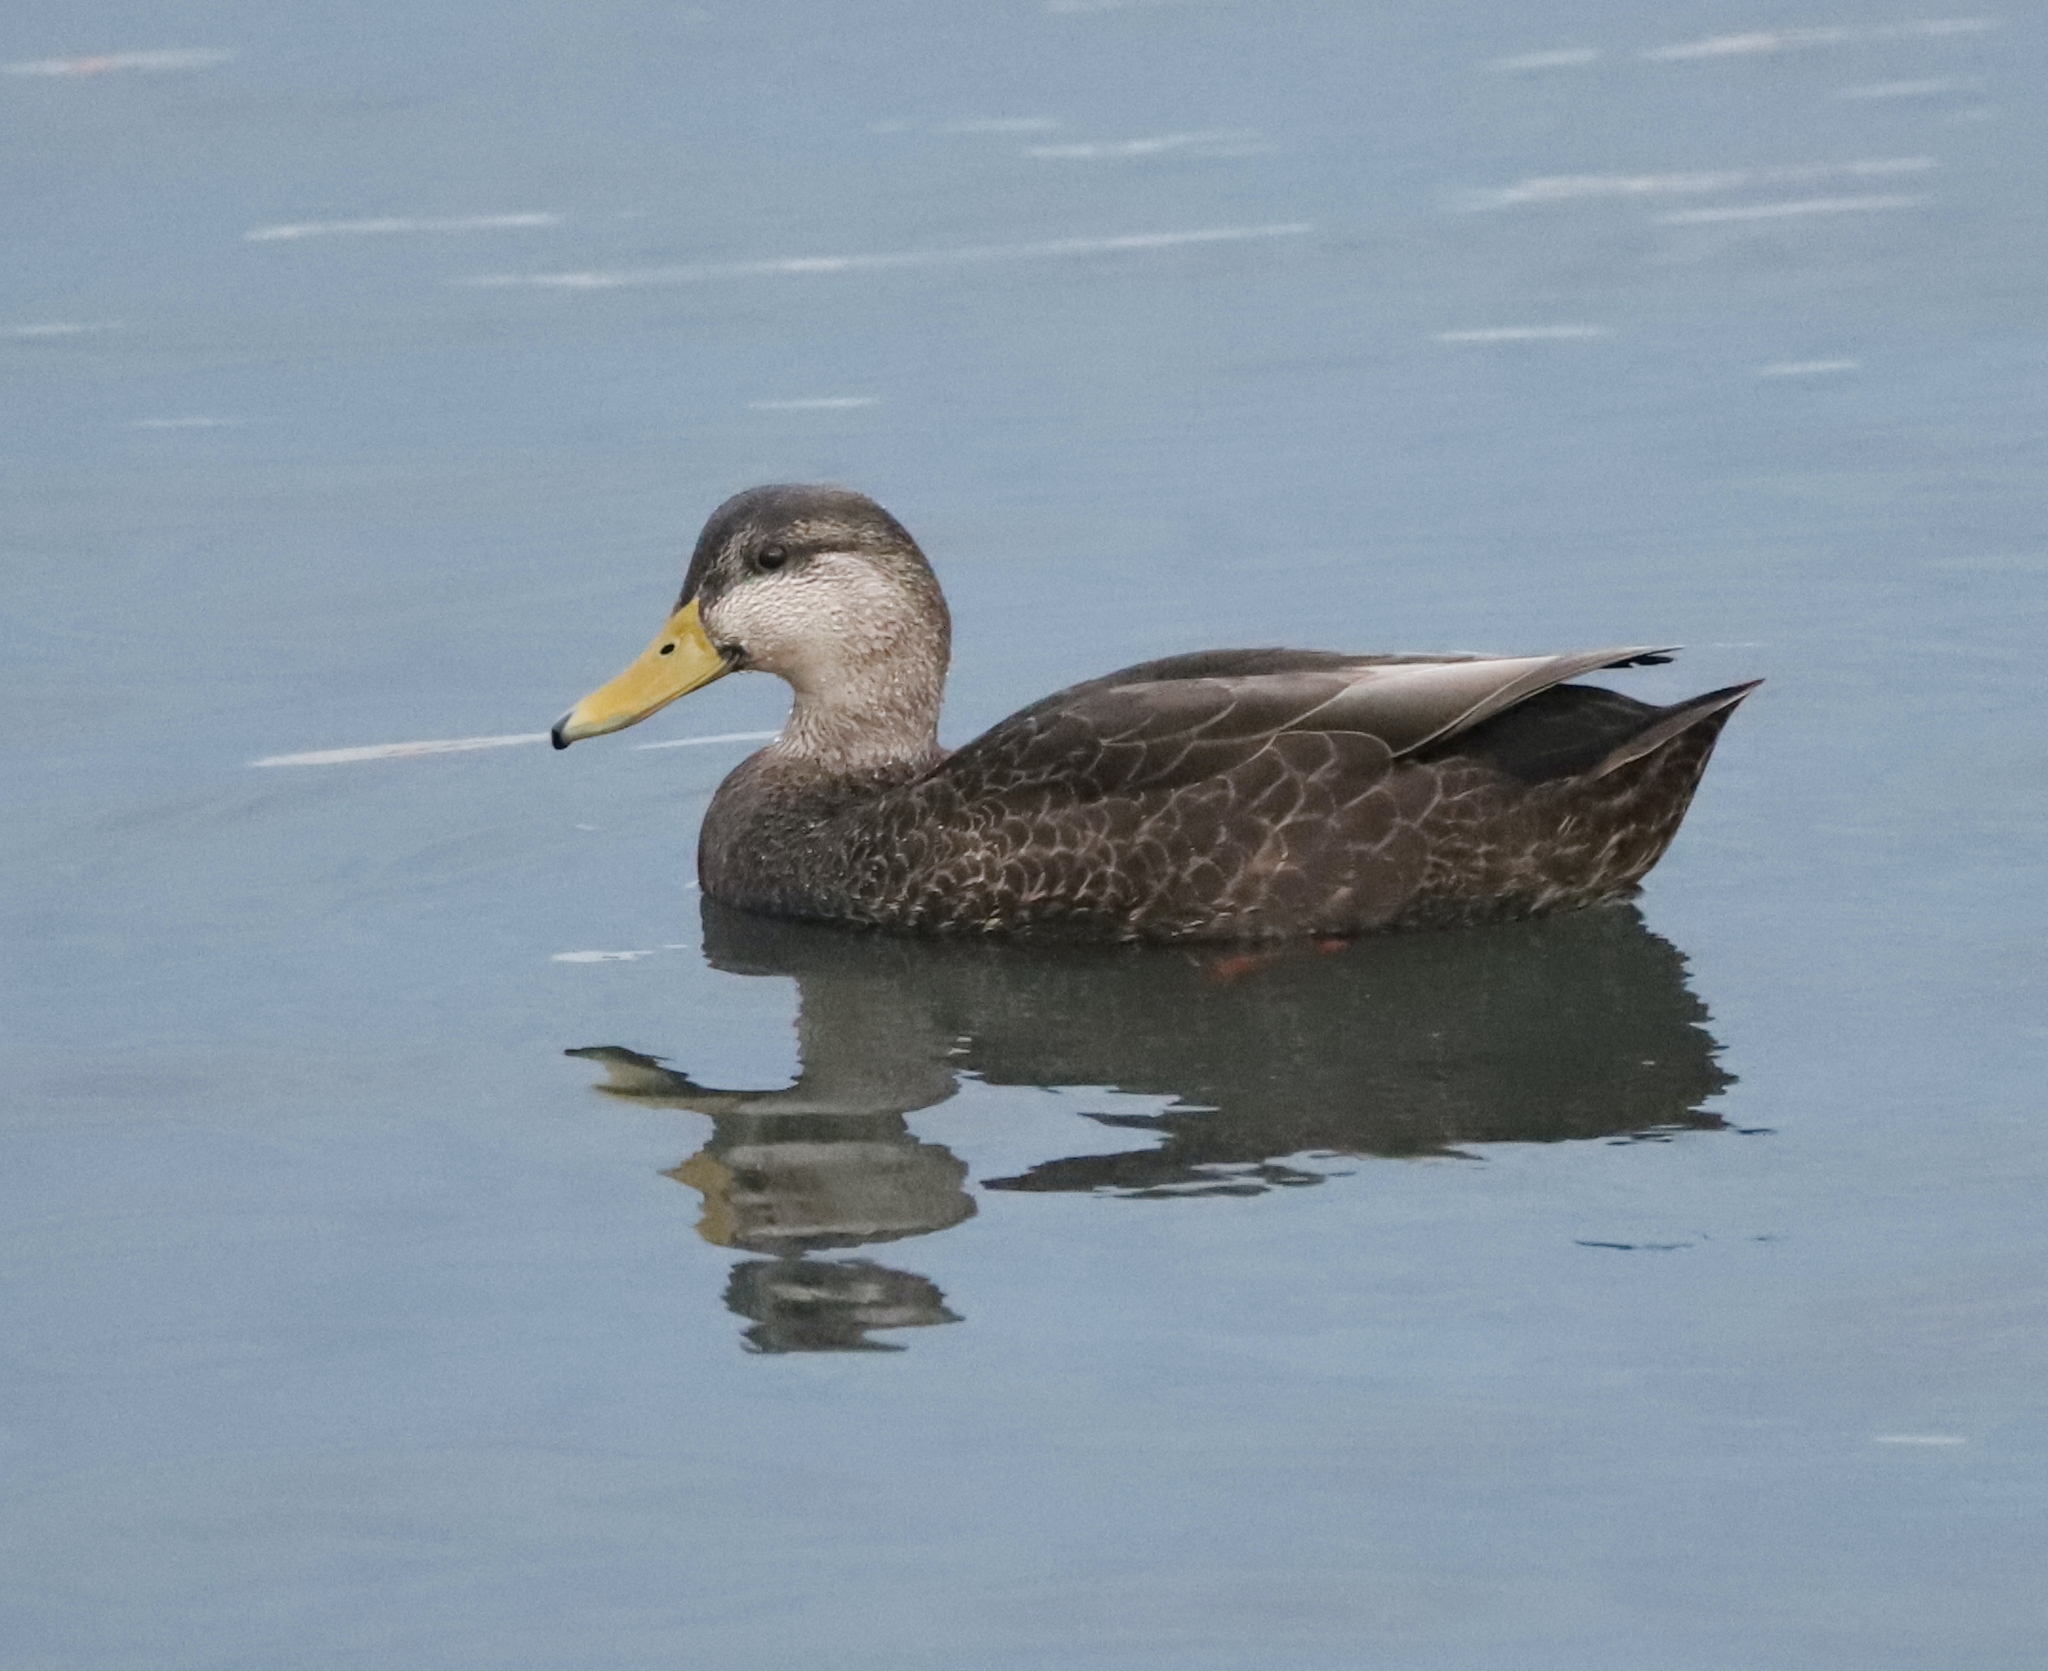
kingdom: Animalia
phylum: Chordata
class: Aves
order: Anseriformes
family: Anatidae
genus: Anas
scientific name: Anas rubripes
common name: American black duck
